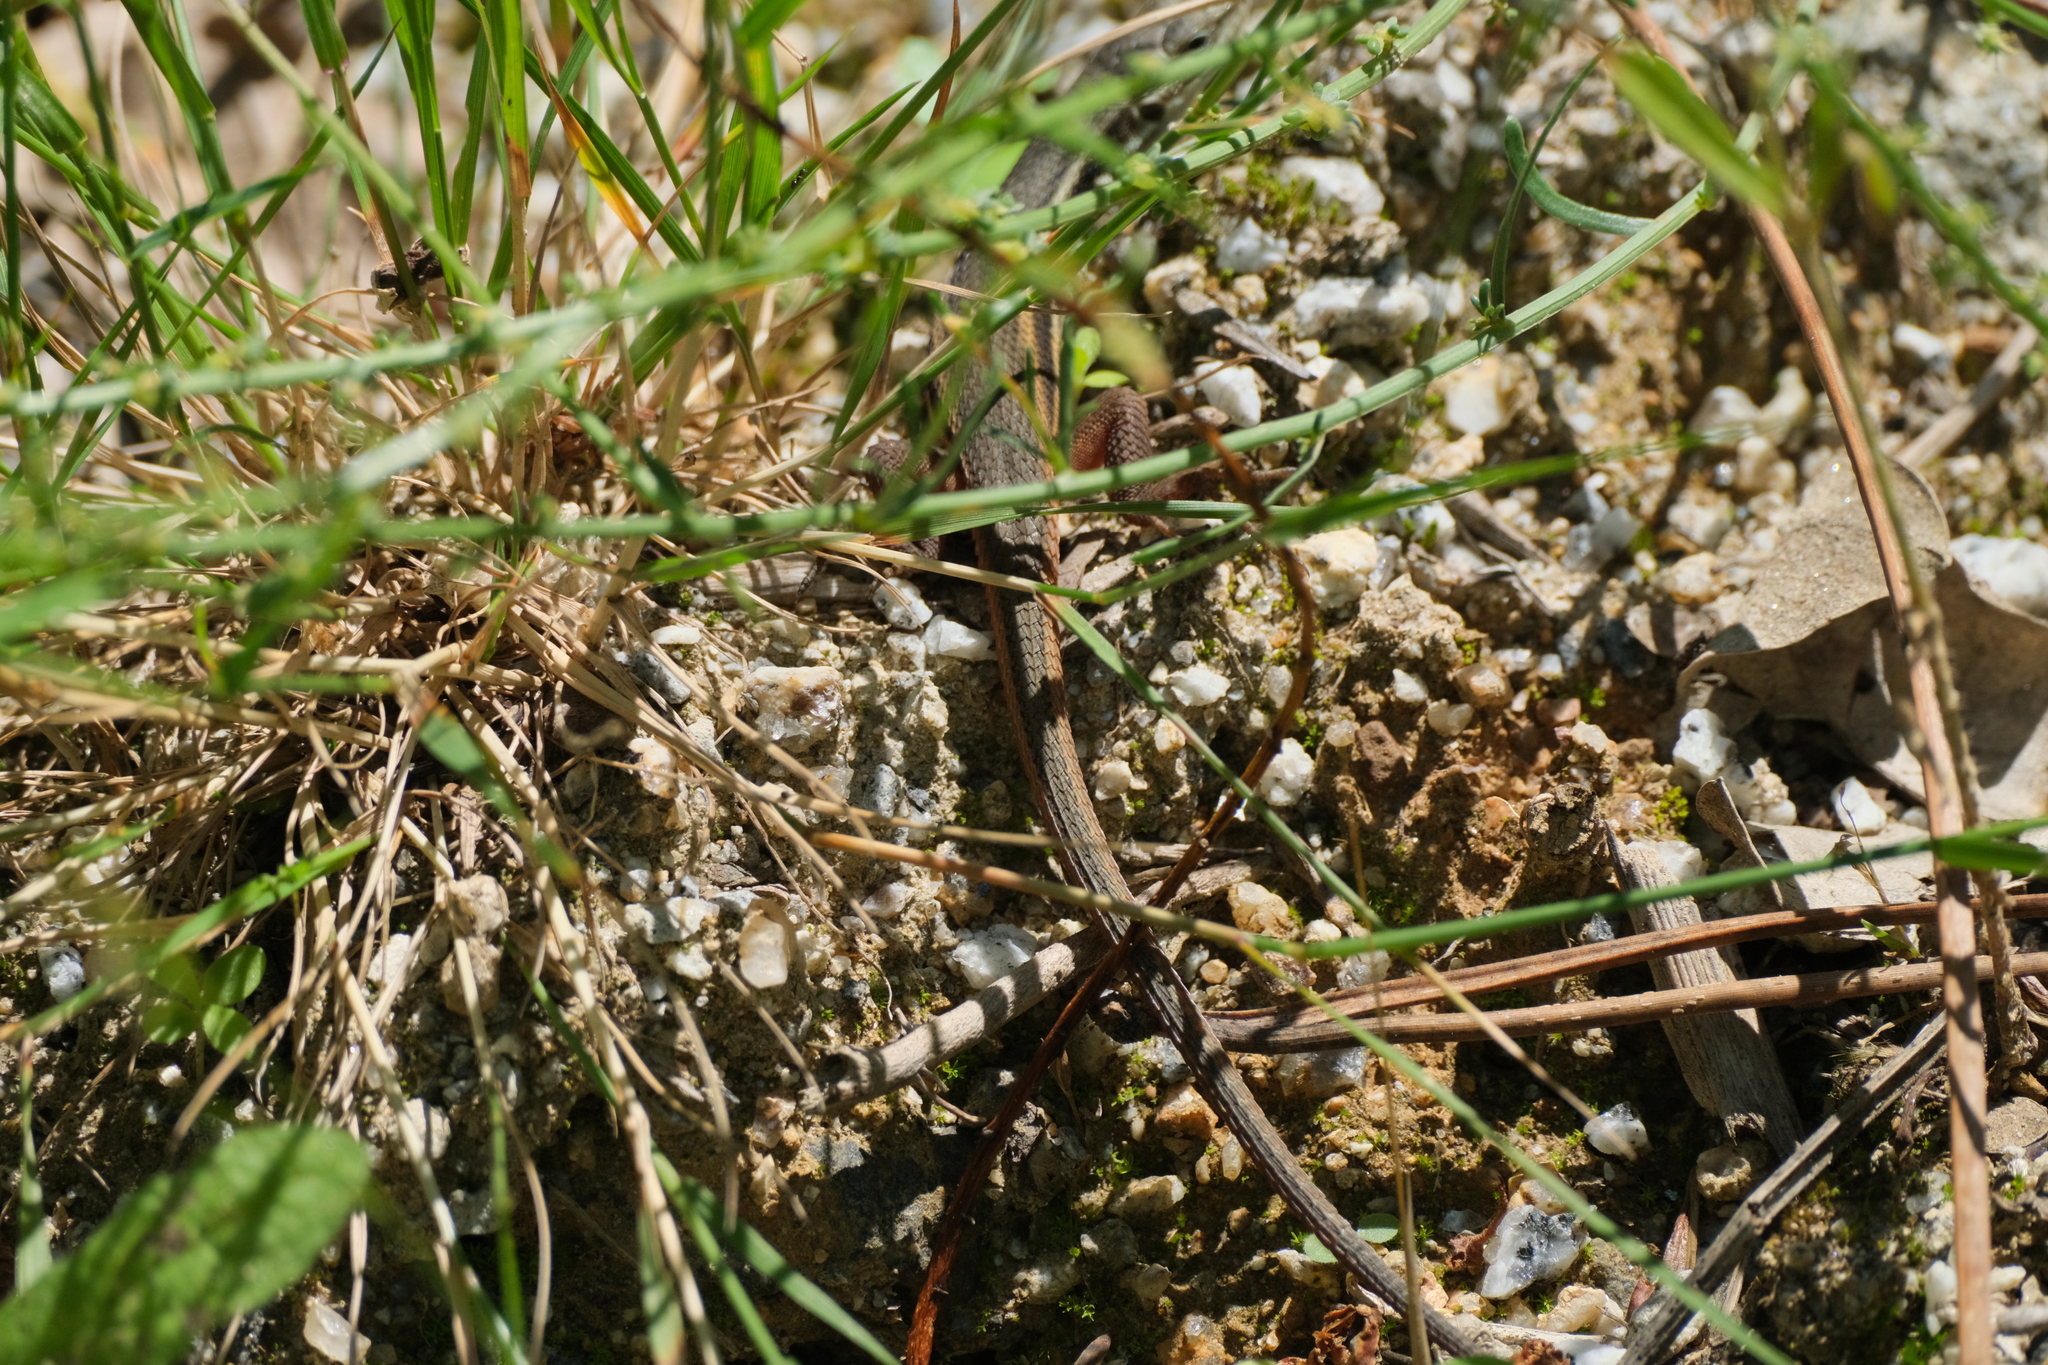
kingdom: Animalia
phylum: Chordata
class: Squamata
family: Lacertidae
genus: Psammodromus
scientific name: Psammodromus algirus
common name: Algerian psammodromus
